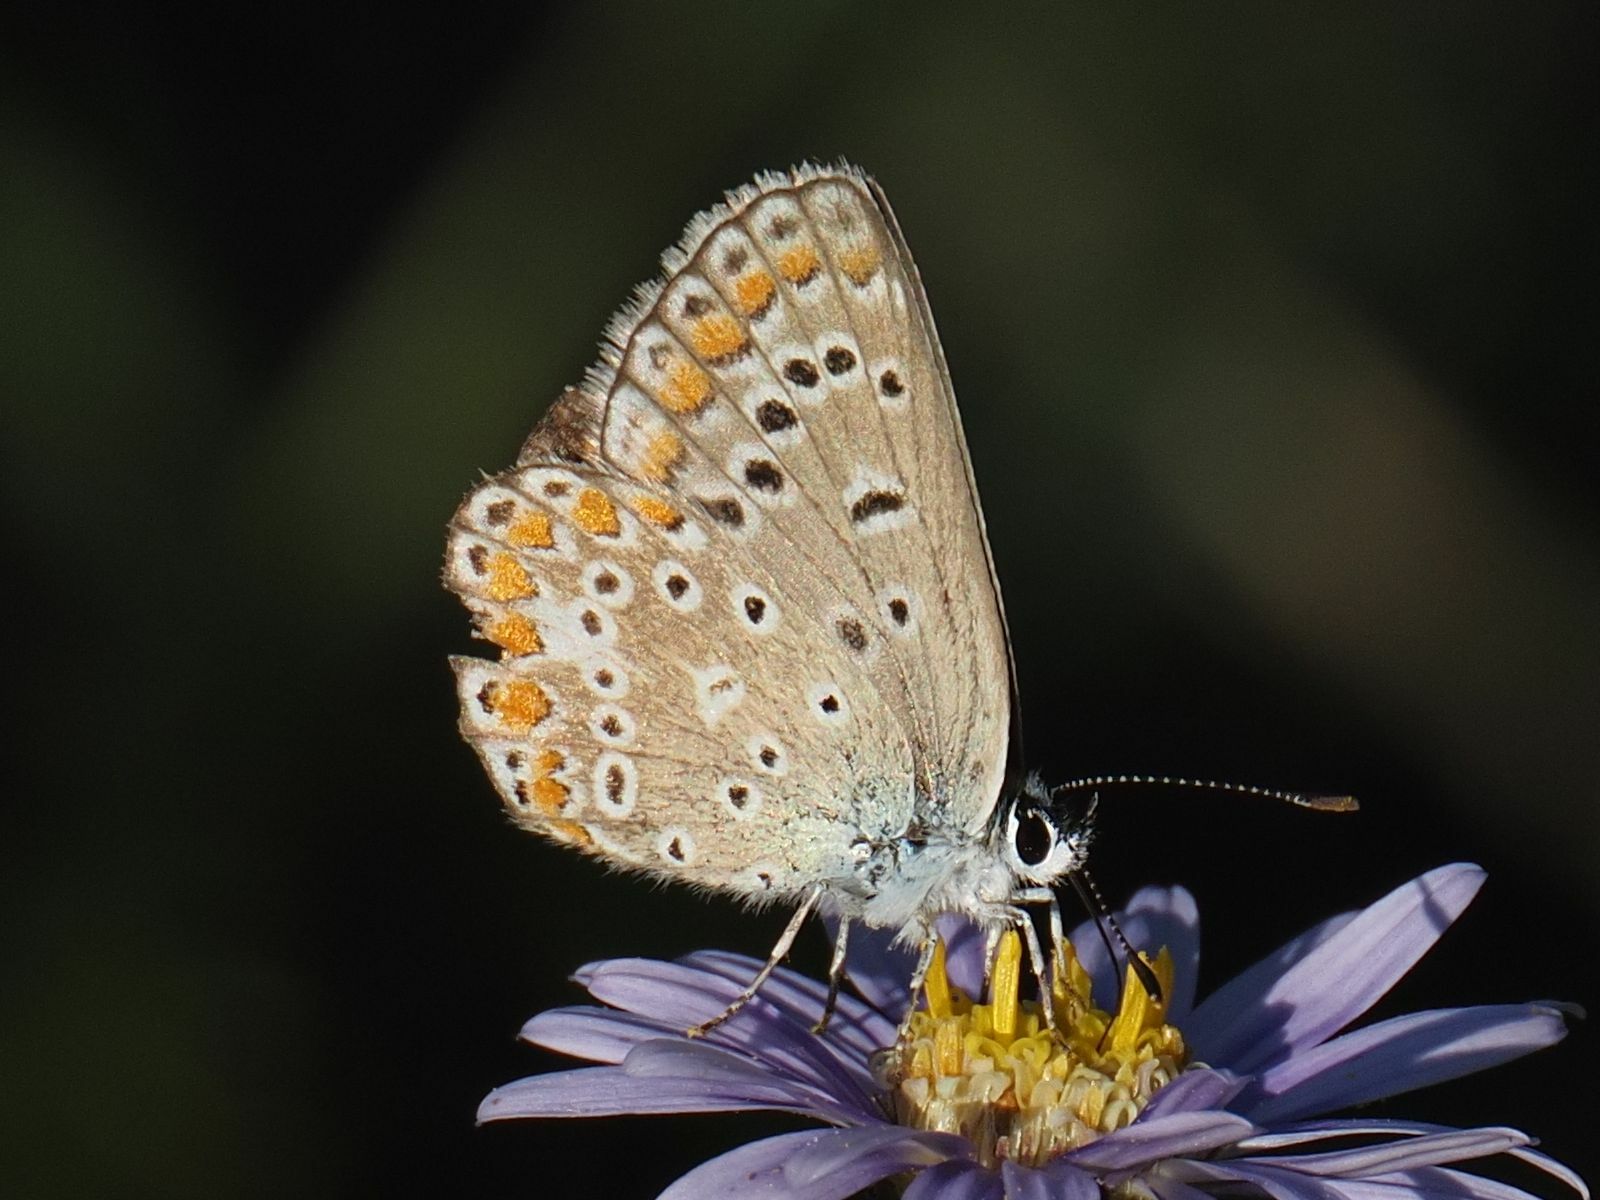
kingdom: Animalia
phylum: Arthropoda
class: Insecta
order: Lepidoptera
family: Lycaenidae
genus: Polyommatus
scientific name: Polyommatus icarus
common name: Common blue
